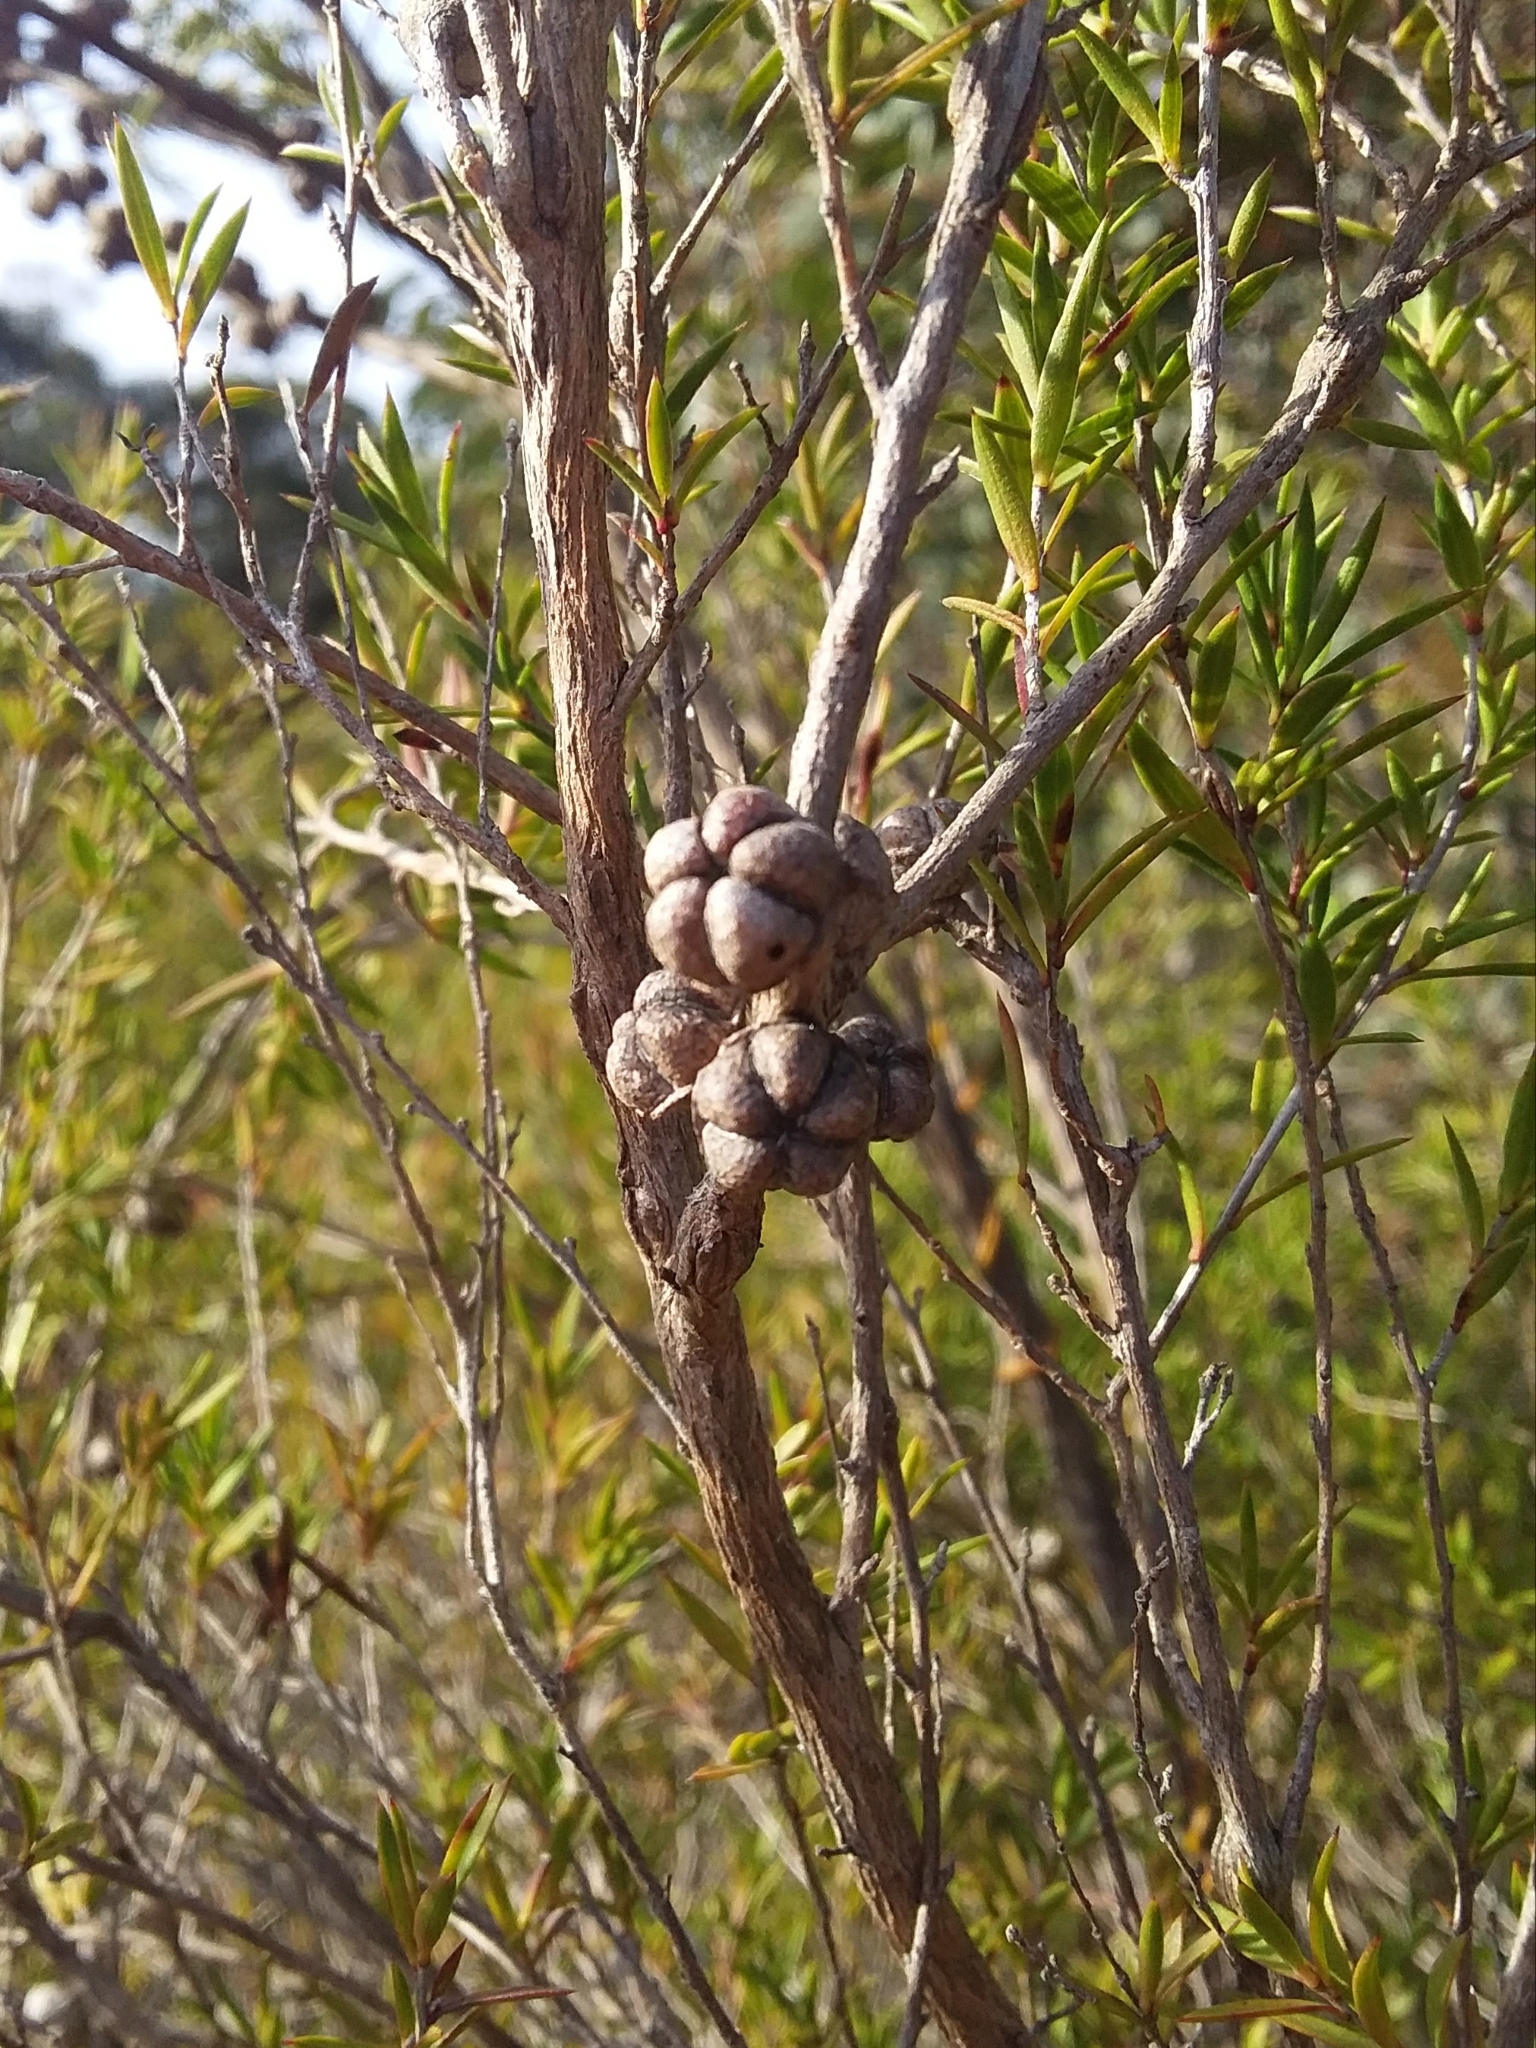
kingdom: Plantae
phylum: Tracheophyta
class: Magnoliopsida
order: Myrtales
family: Myrtaceae
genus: Leptospermum
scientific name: Leptospermum continentale
